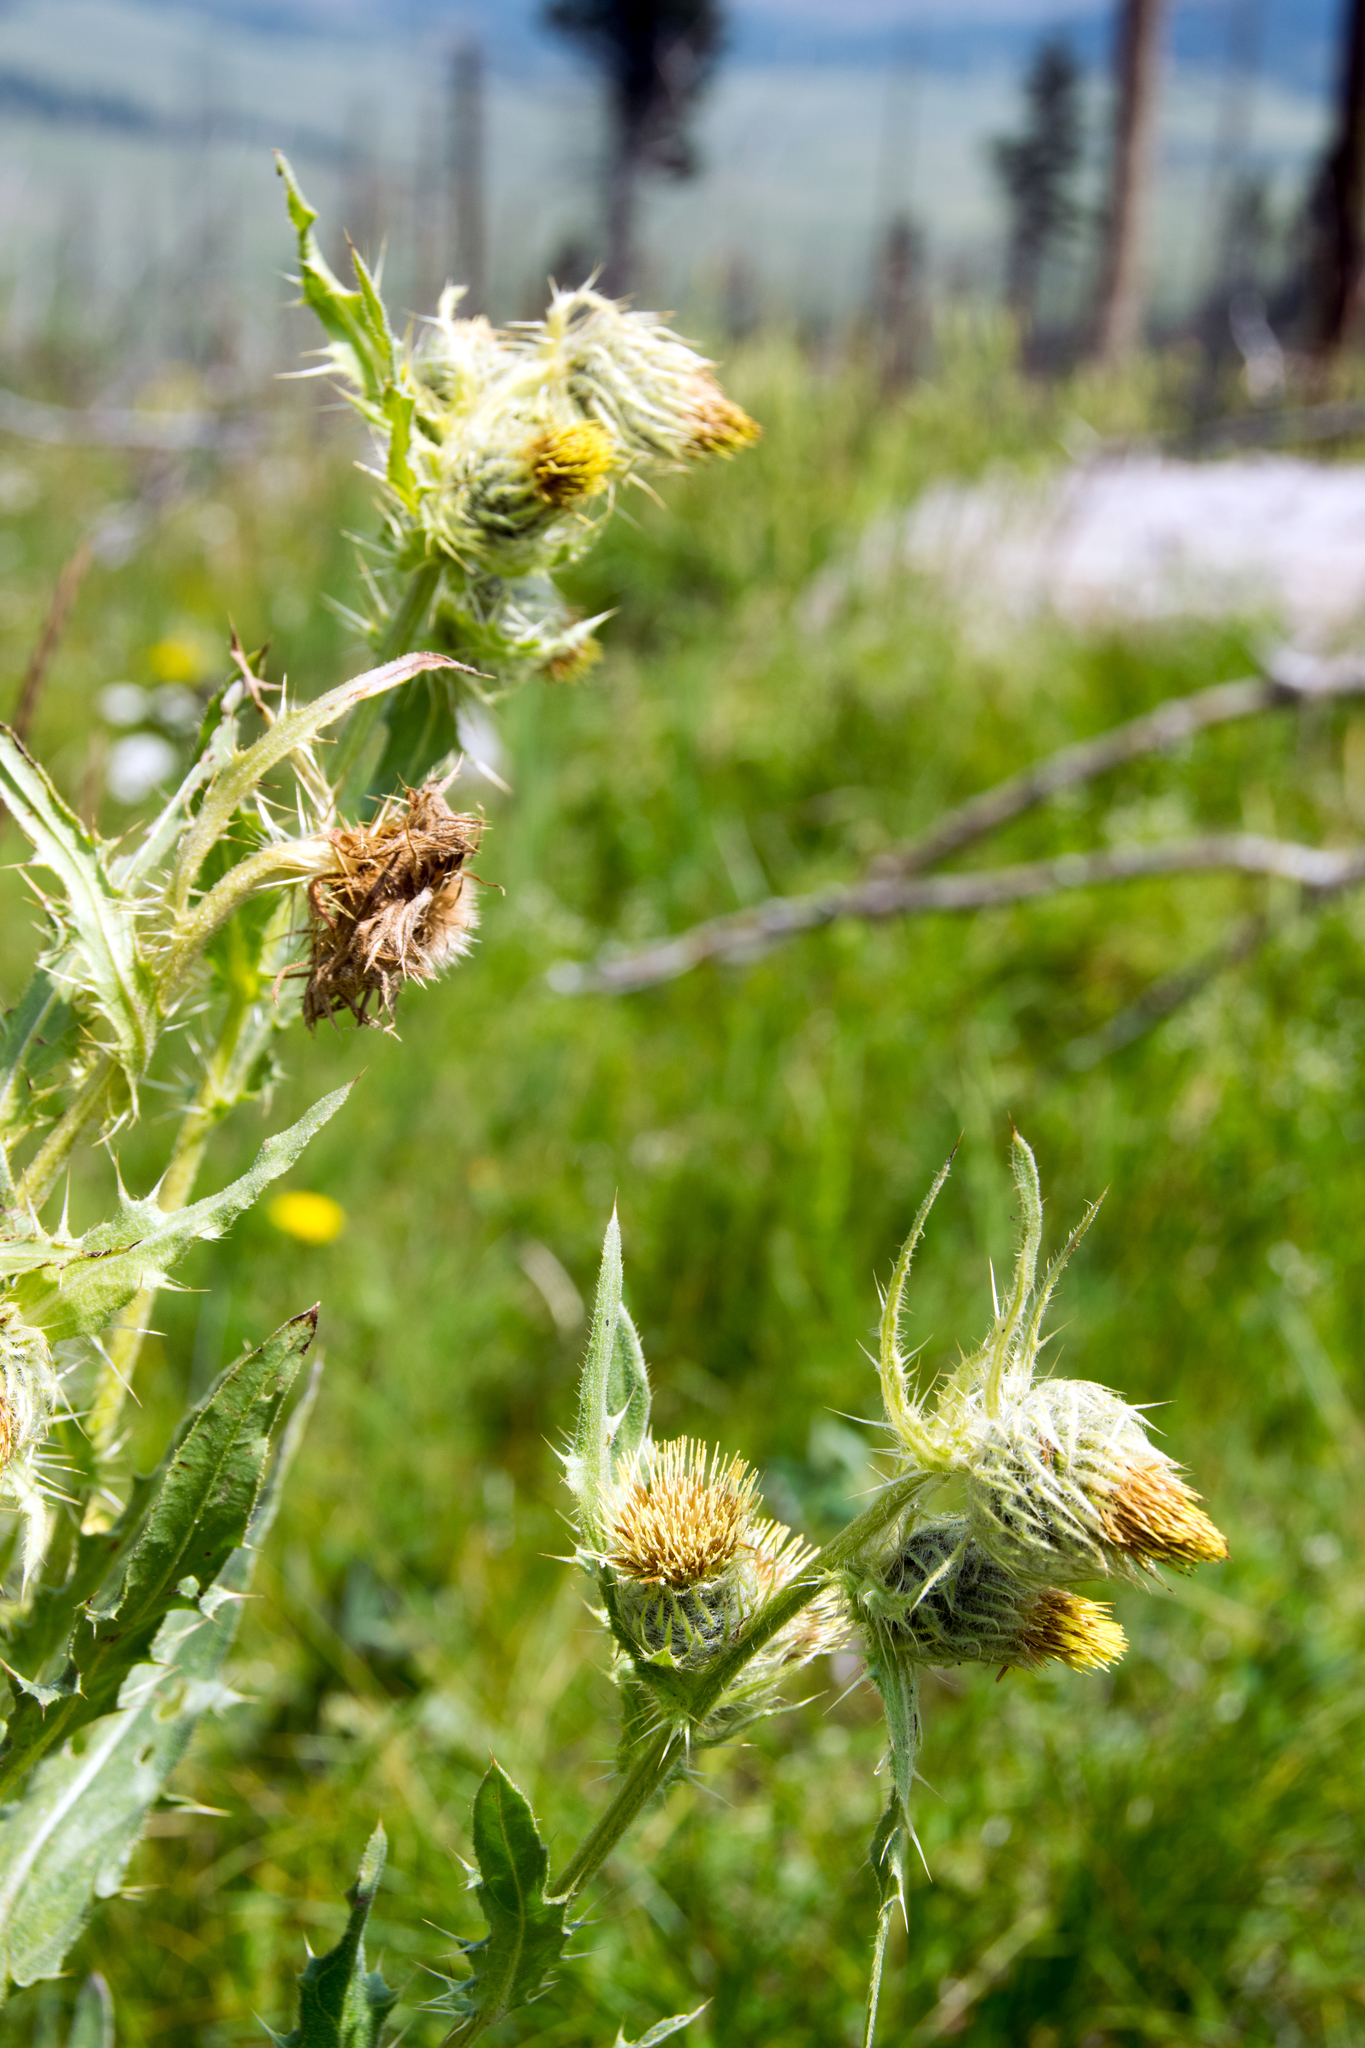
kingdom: Plantae
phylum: Tracheophyta
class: Magnoliopsida
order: Asterales
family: Asteraceae
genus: Cirsium
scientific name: Cirsium parryi
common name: Parry's thistle
